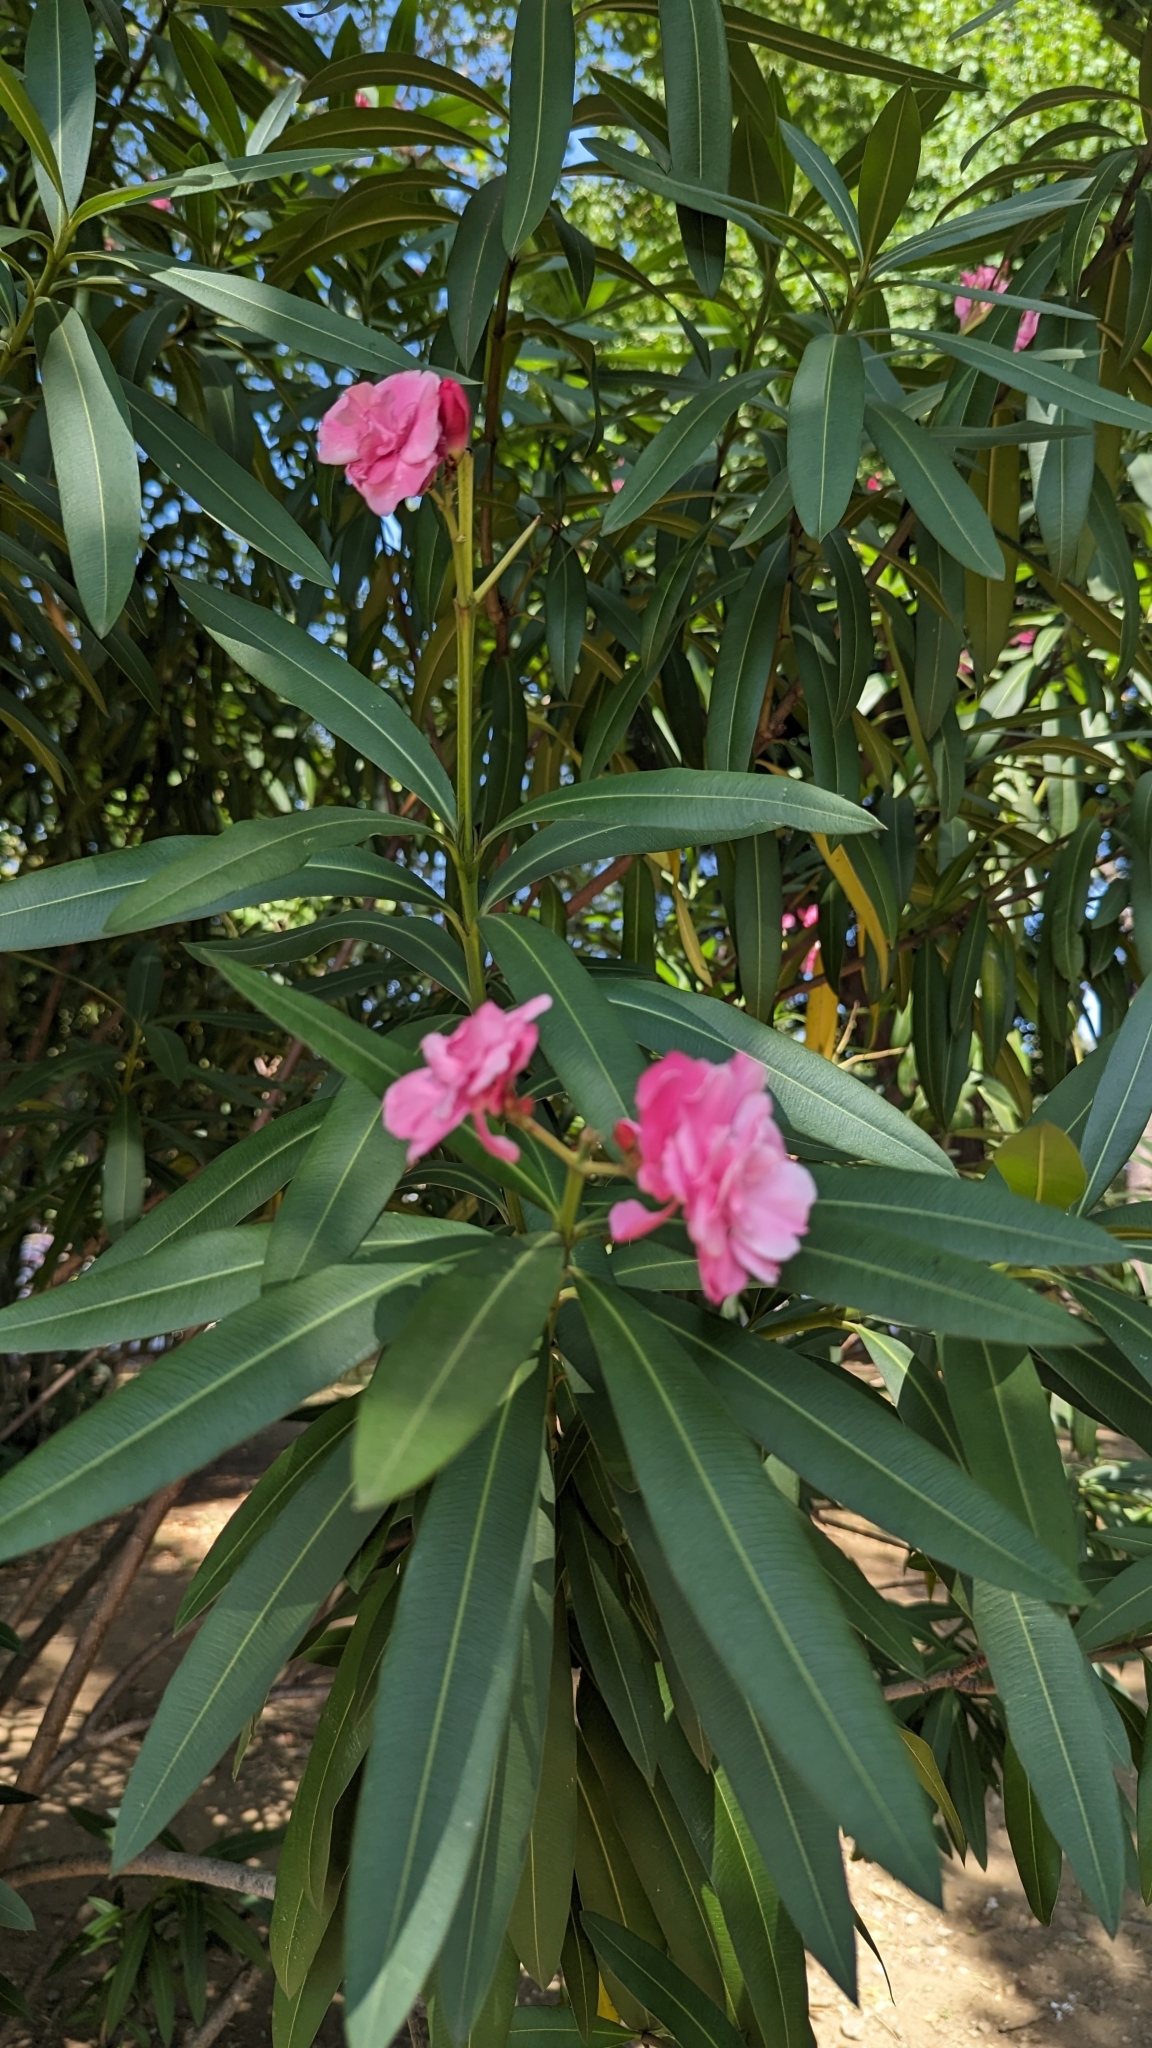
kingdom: Plantae
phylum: Tracheophyta
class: Magnoliopsida
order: Gentianales
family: Apocynaceae
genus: Nerium
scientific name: Nerium oleander
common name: Oleander
